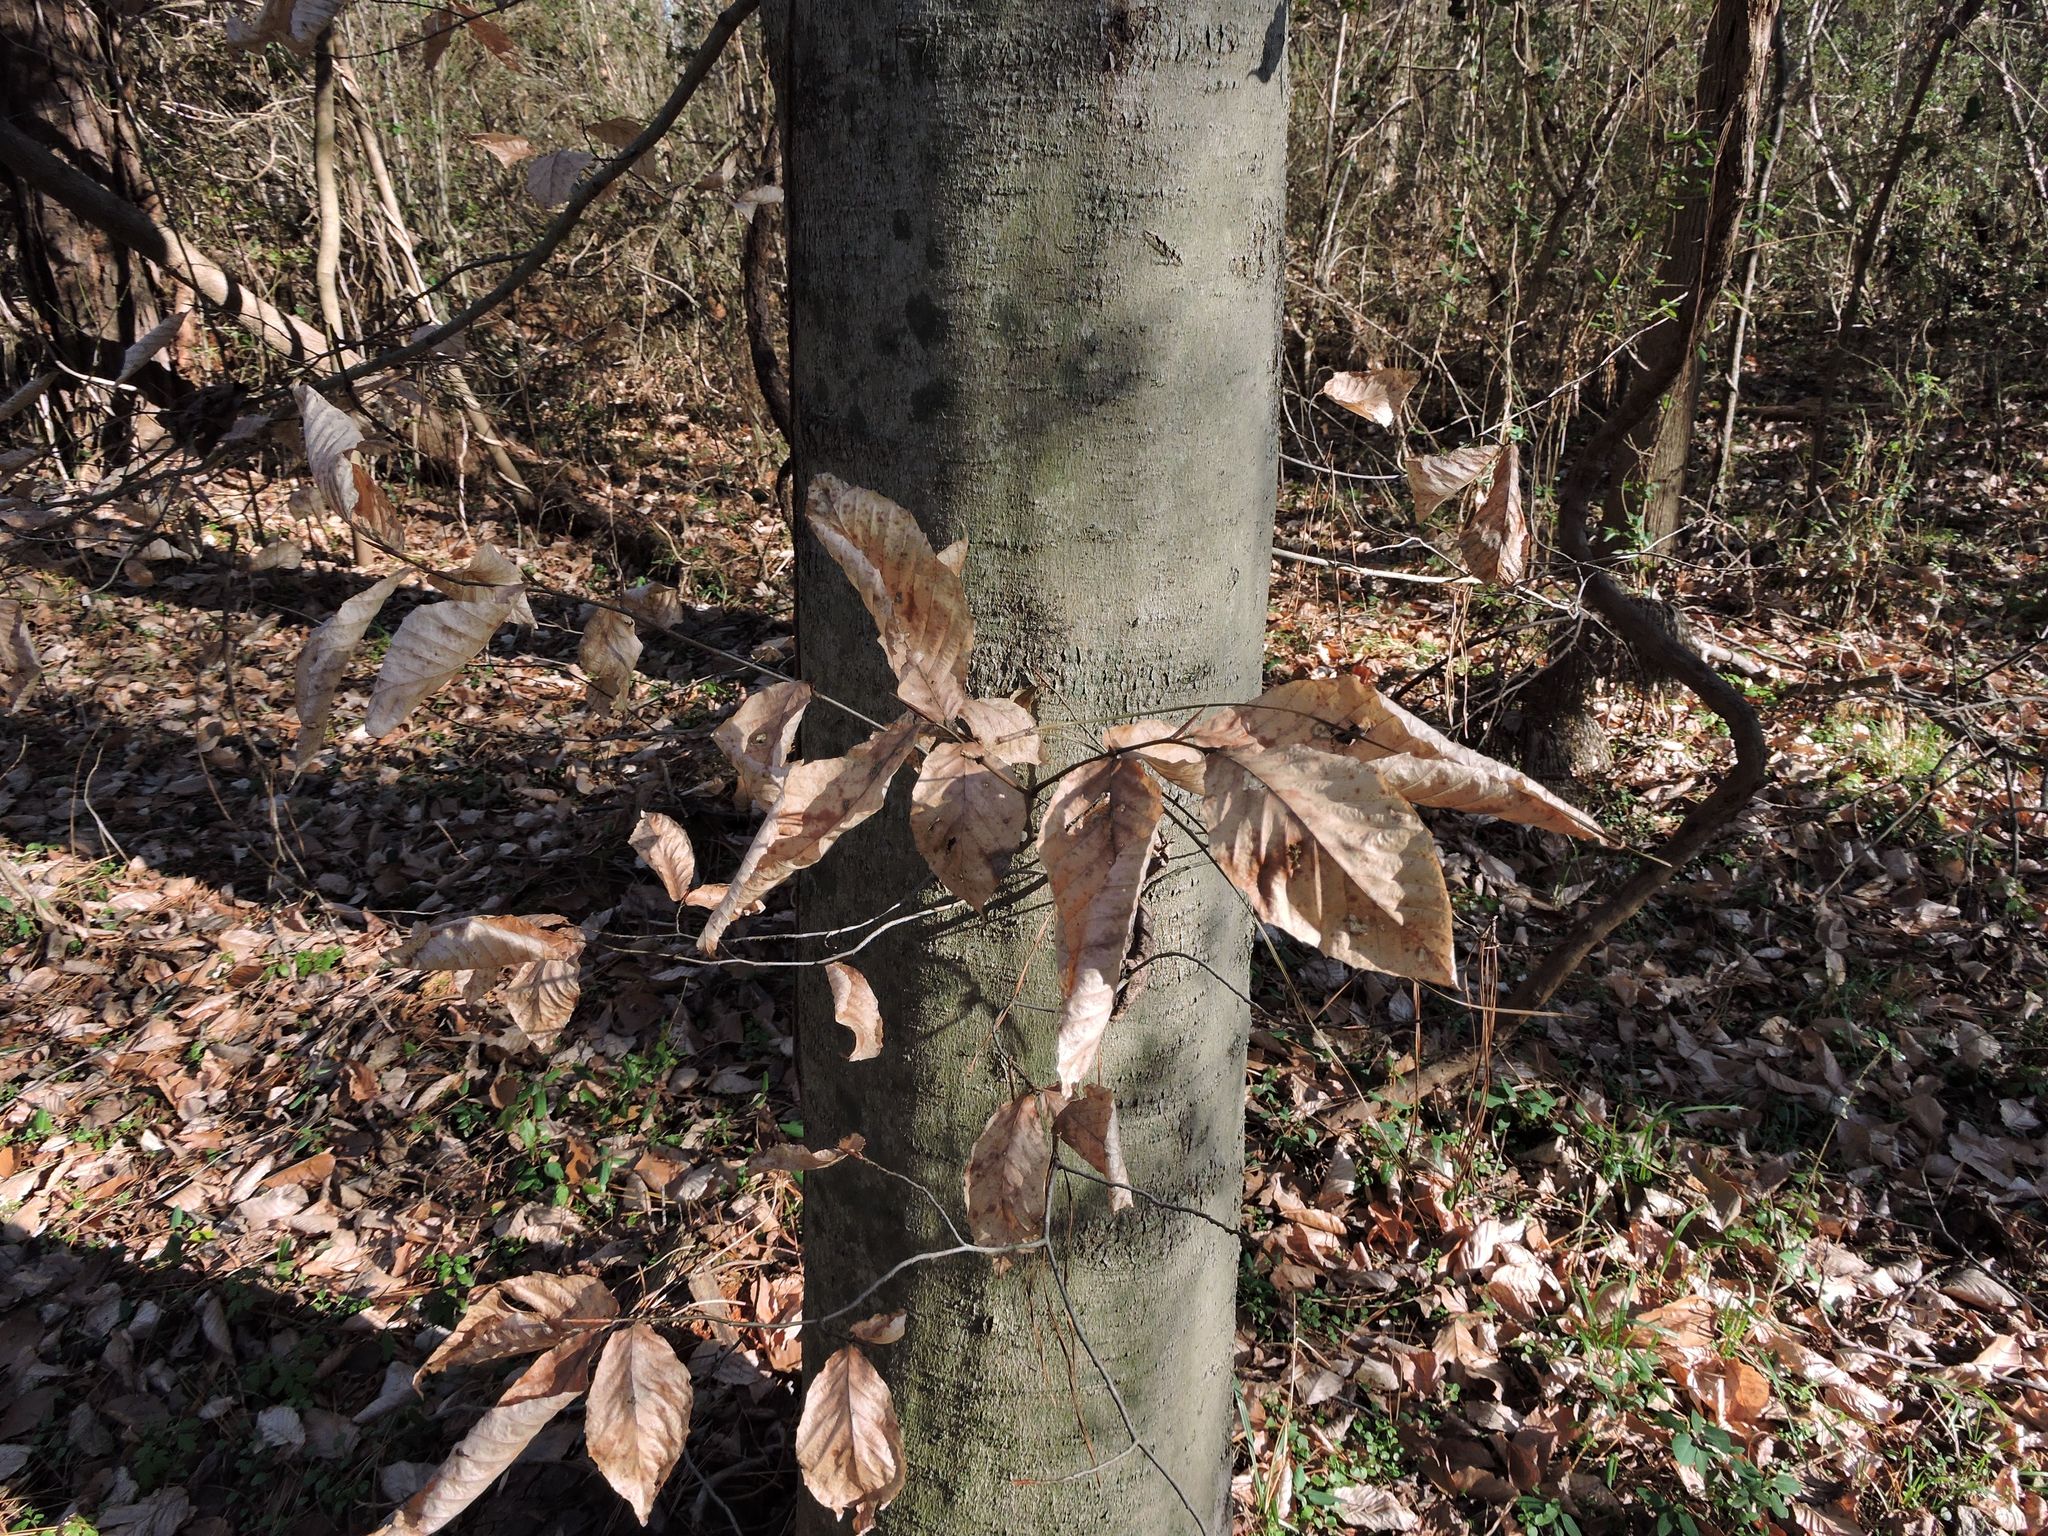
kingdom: Plantae
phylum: Tracheophyta
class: Magnoliopsida
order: Fagales
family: Fagaceae
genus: Fagus
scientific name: Fagus grandifolia
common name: American beech
